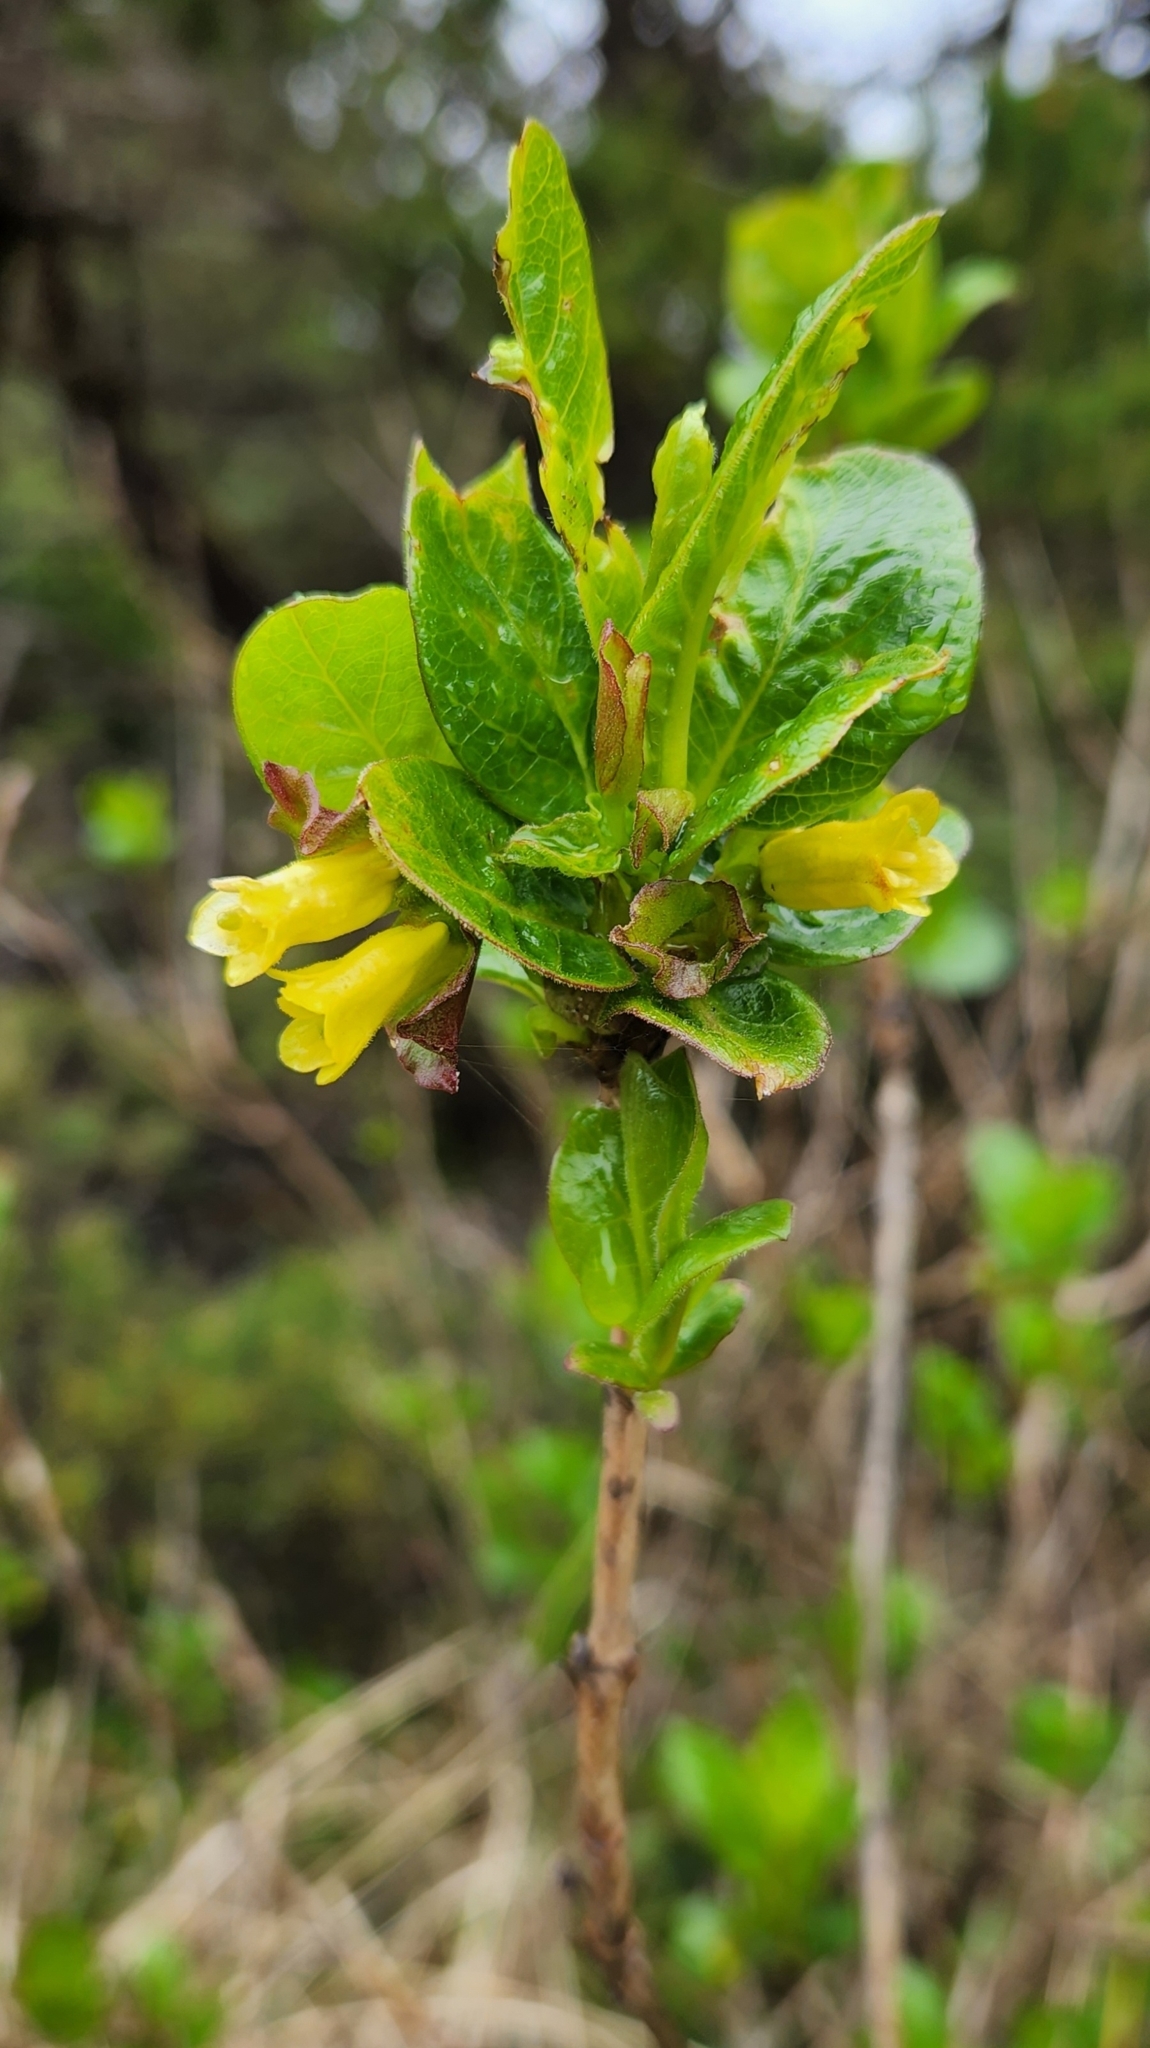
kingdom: Plantae
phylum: Tracheophyta
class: Magnoliopsida
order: Dipsacales
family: Caprifoliaceae
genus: Lonicera
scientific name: Lonicera involucrata
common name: Californian honeysuckle
